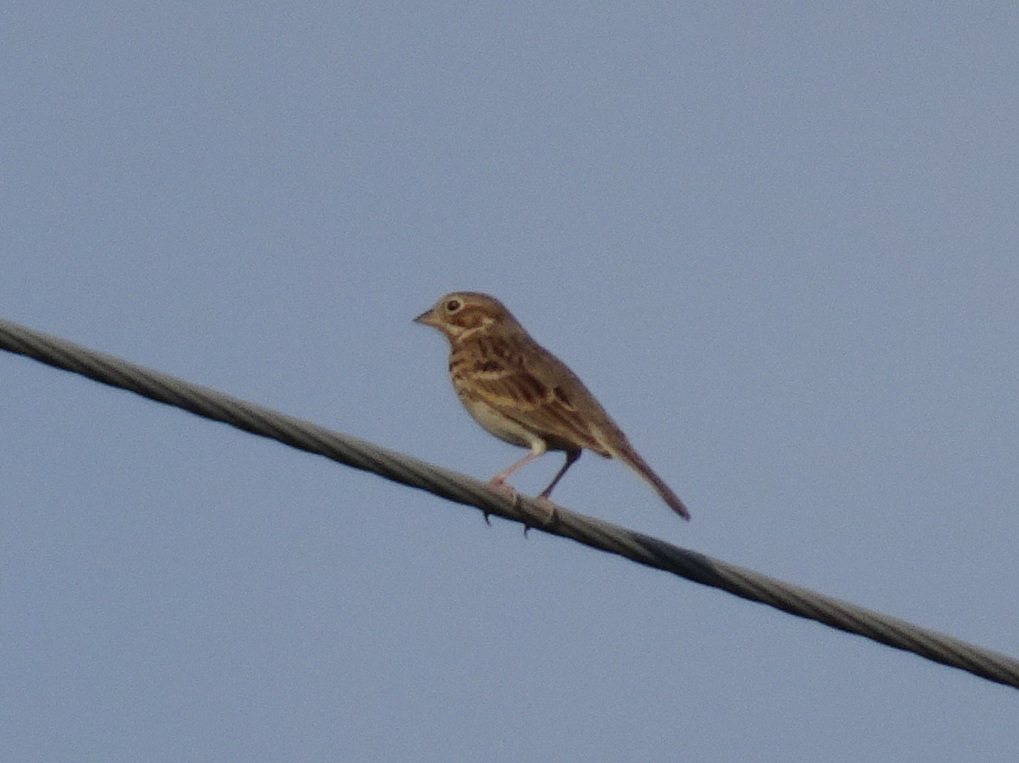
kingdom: Animalia
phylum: Chordata
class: Aves
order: Passeriformes
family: Passerellidae
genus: Pooecetes
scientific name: Pooecetes gramineus
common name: Vesper sparrow
